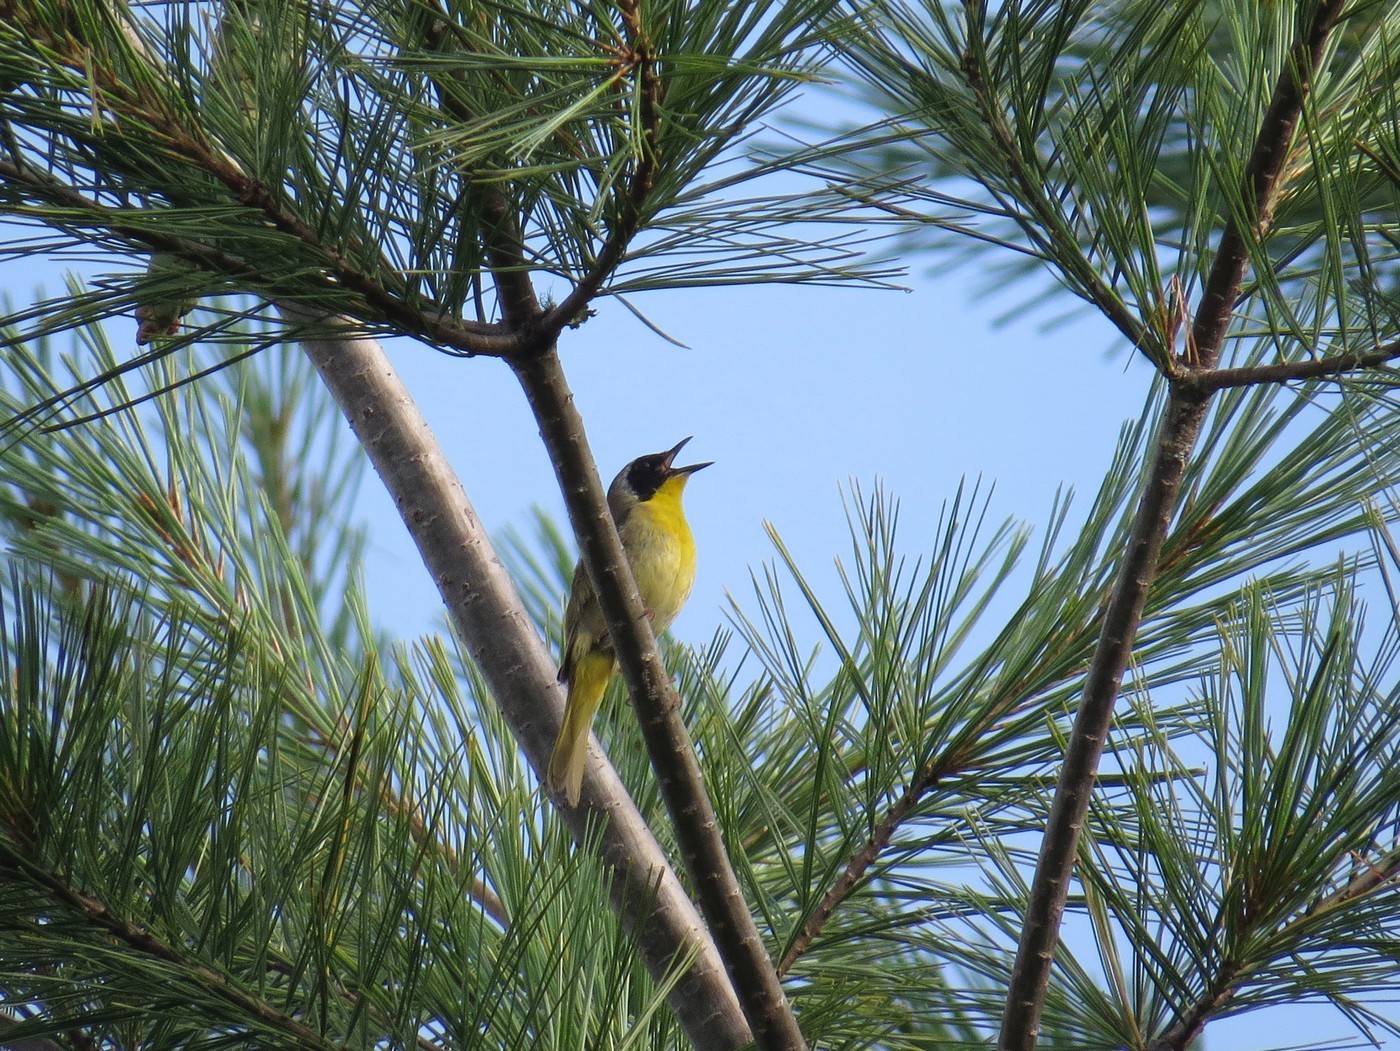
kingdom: Animalia
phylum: Chordata
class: Aves
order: Passeriformes
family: Parulidae
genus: Geothlypis
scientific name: Geothlypis trichas
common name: Common yellowthroat
